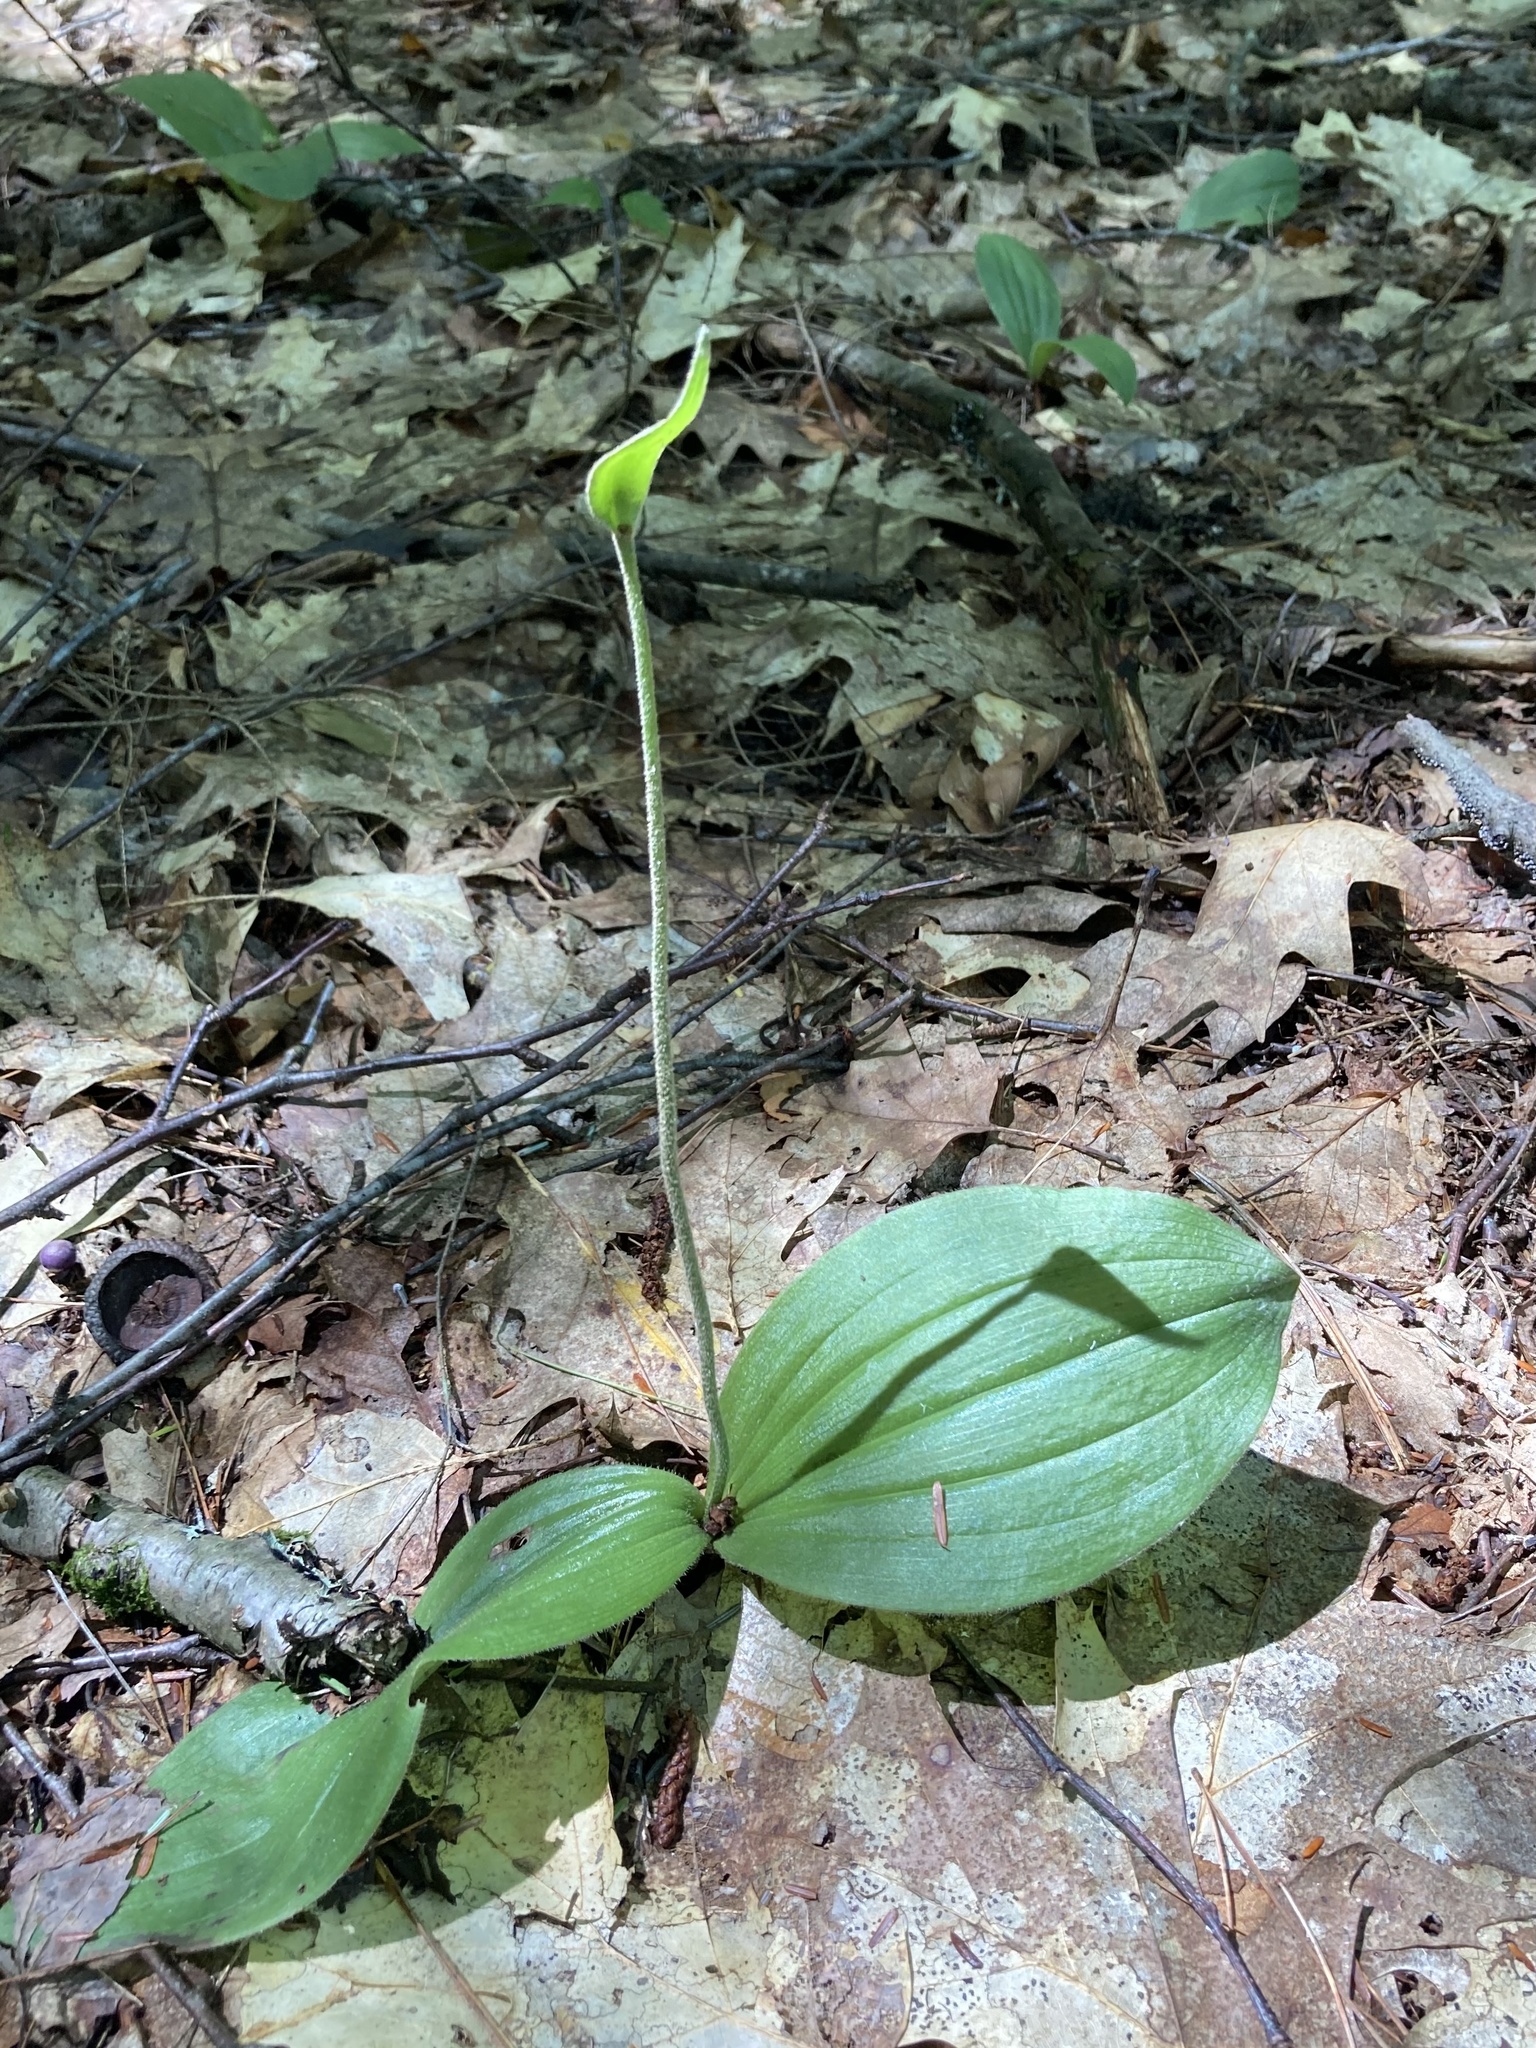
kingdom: Plantae
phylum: Tracheophyta
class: Liliopsida
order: Asparagales
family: Orchidaceae
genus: Cypripedium
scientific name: Cypripedium acaule
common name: Pink lady's-slipper
